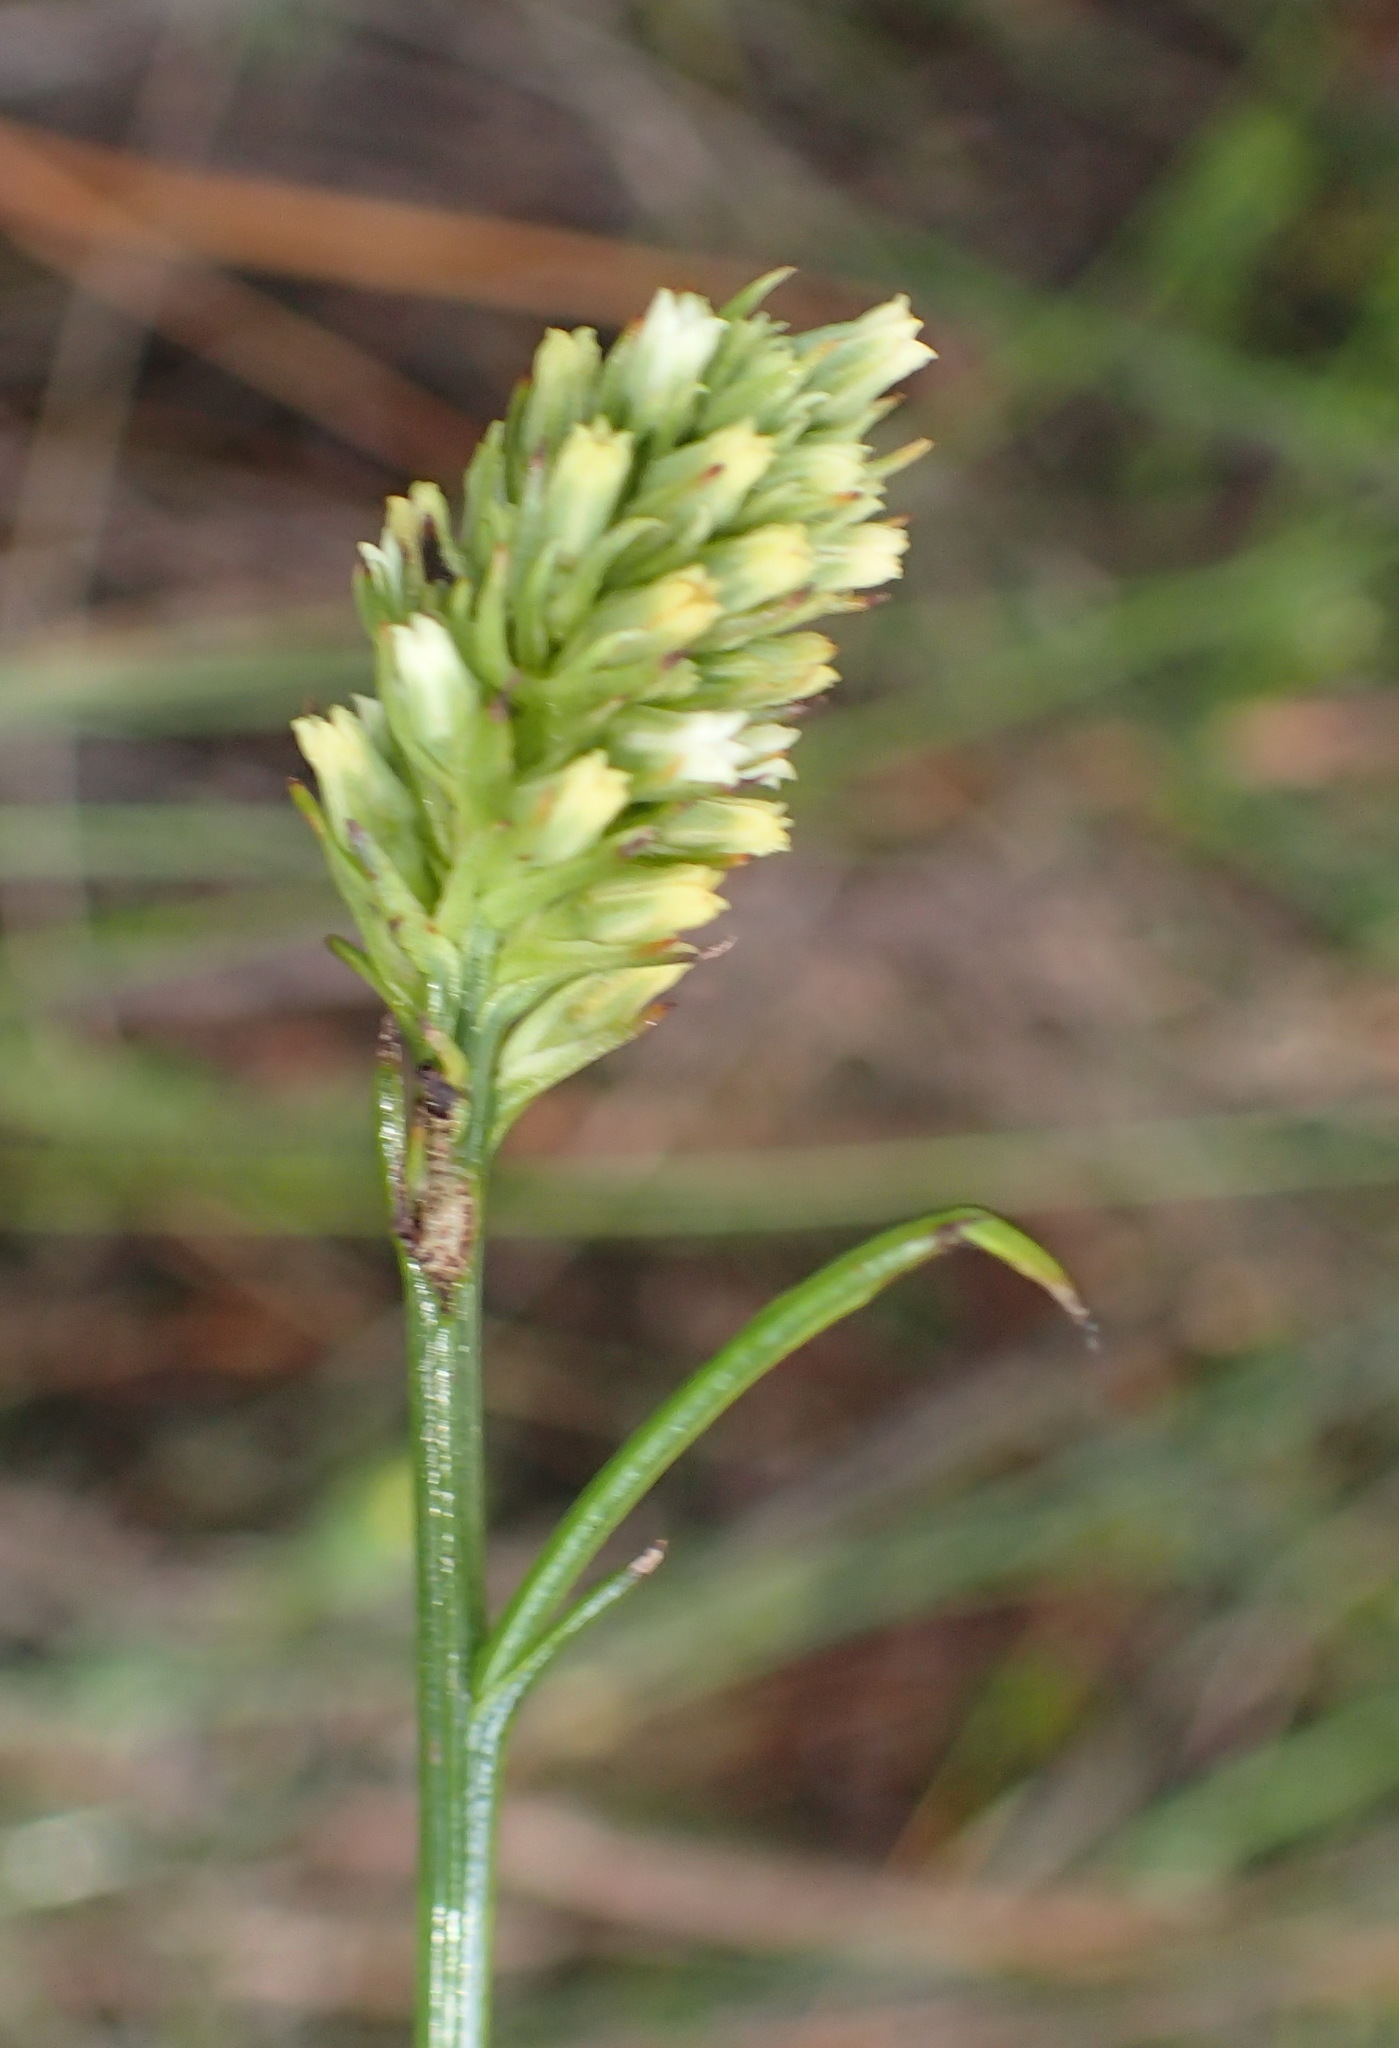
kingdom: Plantae
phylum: Tracheophyta
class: Magnoliopsida
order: Santalales
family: Thesiaceae
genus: Thesium
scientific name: Thesium spicatum
